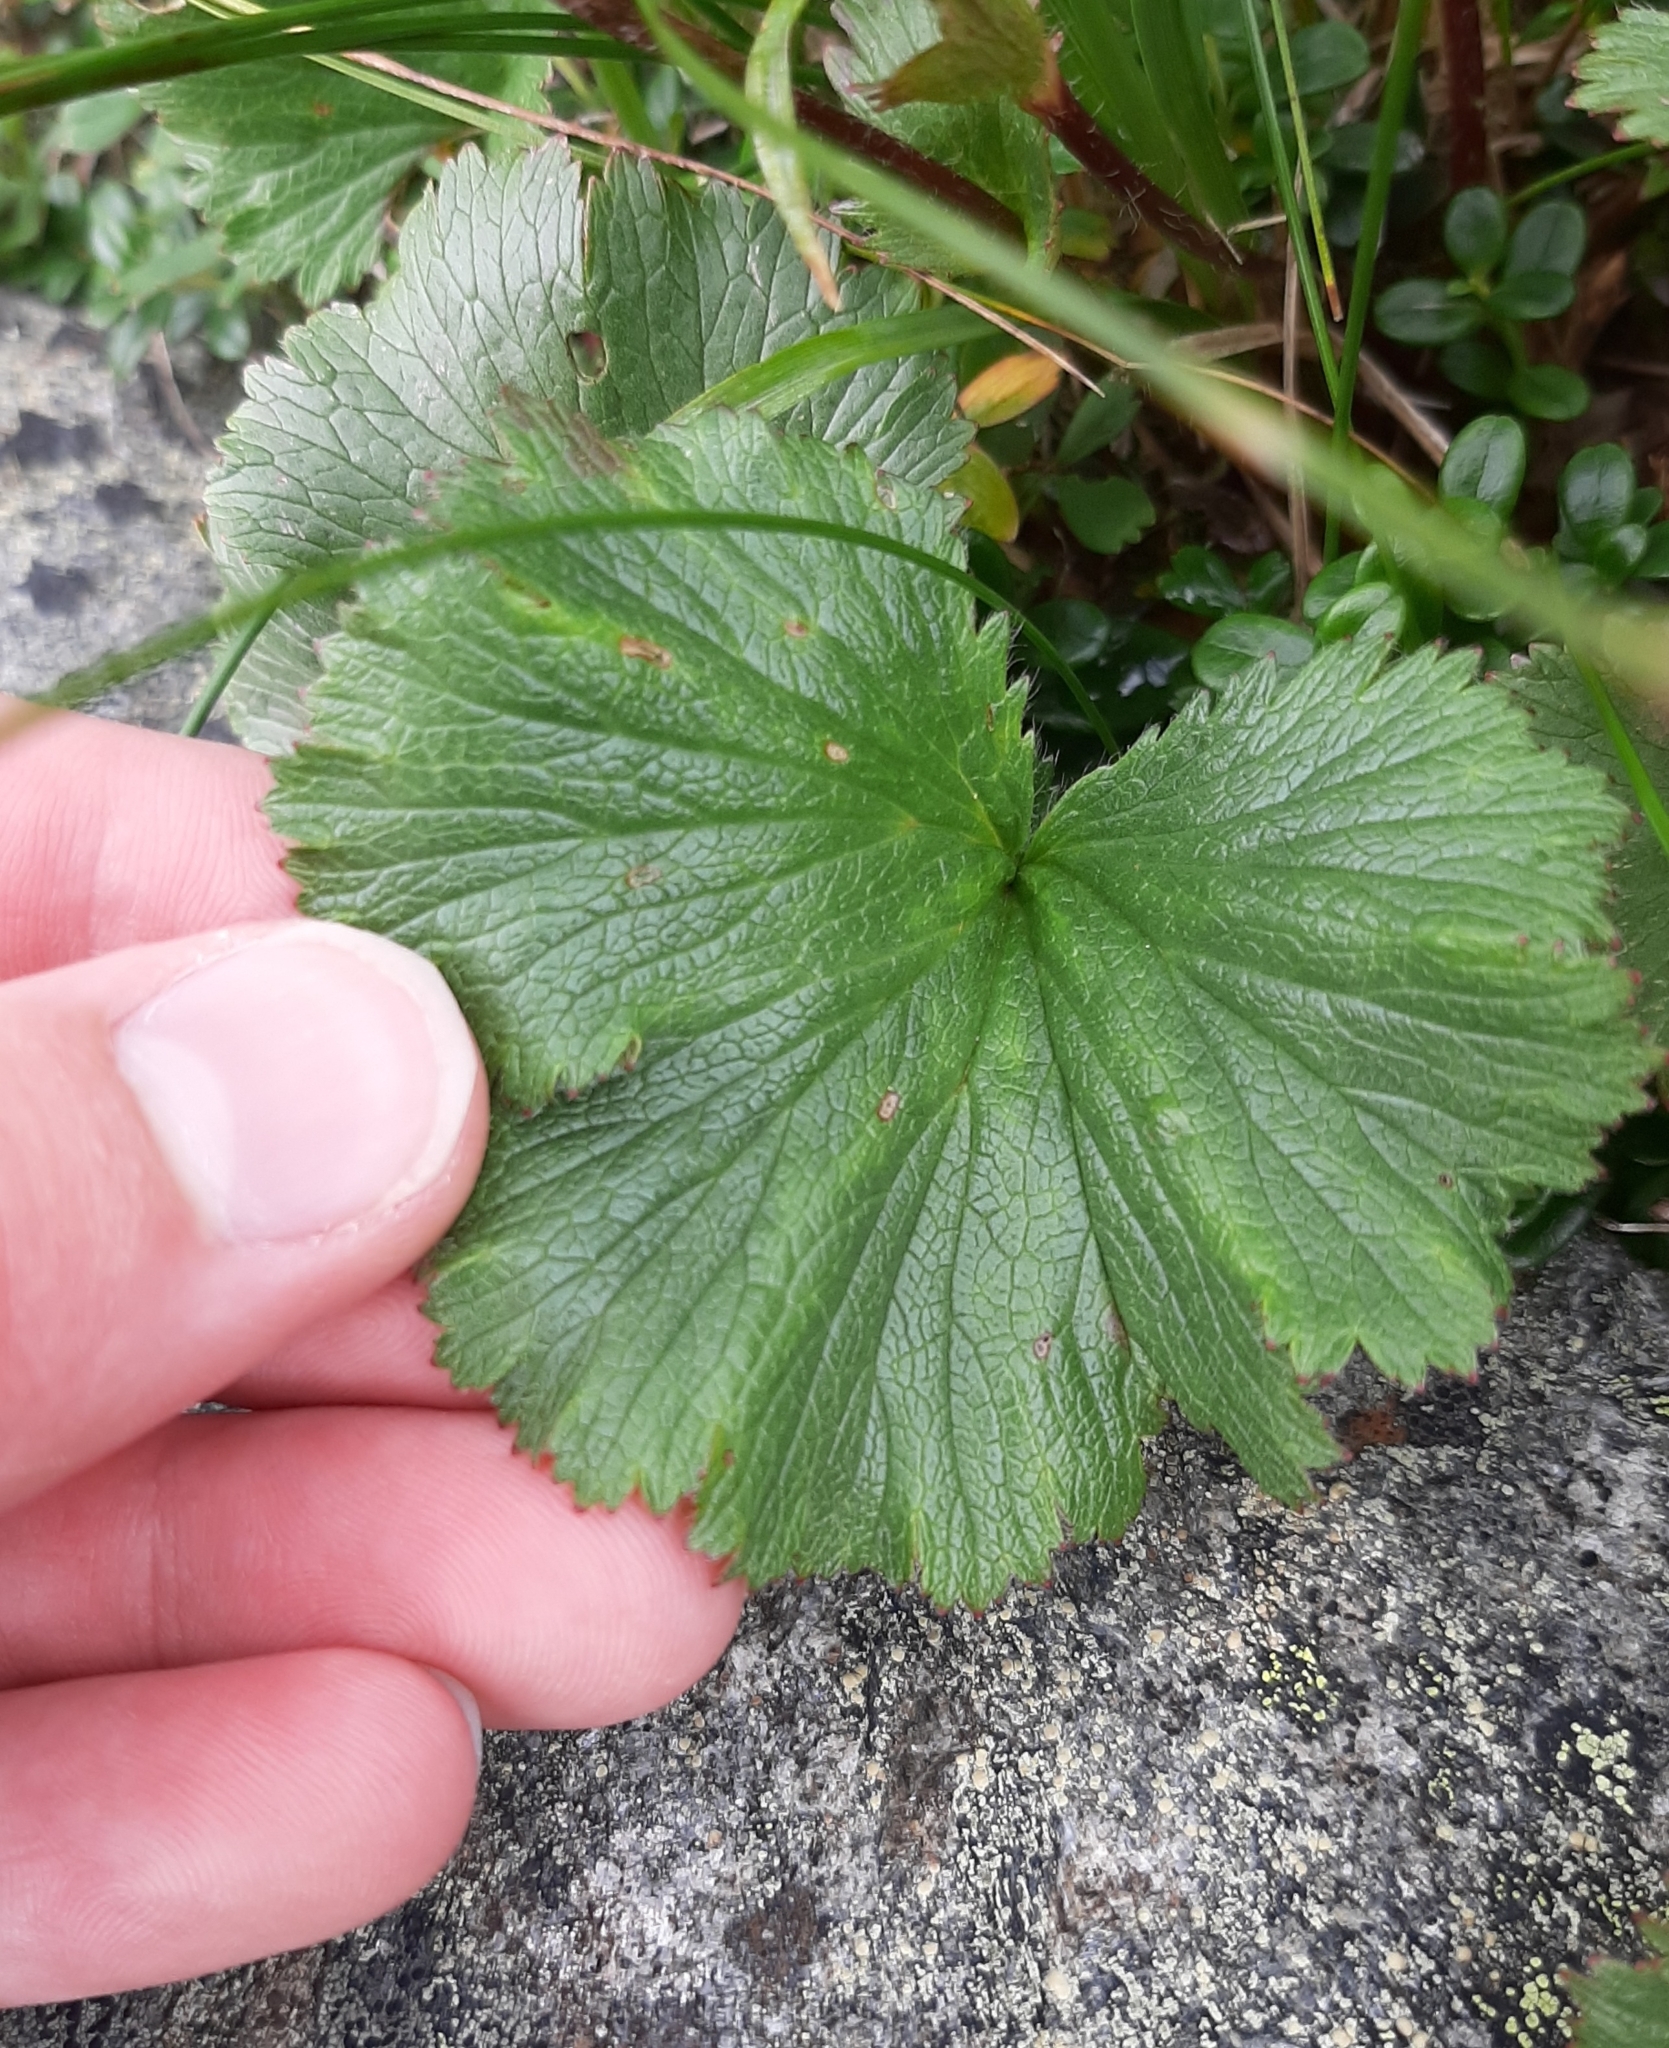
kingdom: Plantae
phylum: Tracheophyta
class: Magnoliopsida
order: Rosales
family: Rosaceae
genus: Geum
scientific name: Geum peckii
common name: Eastern mountain avens
